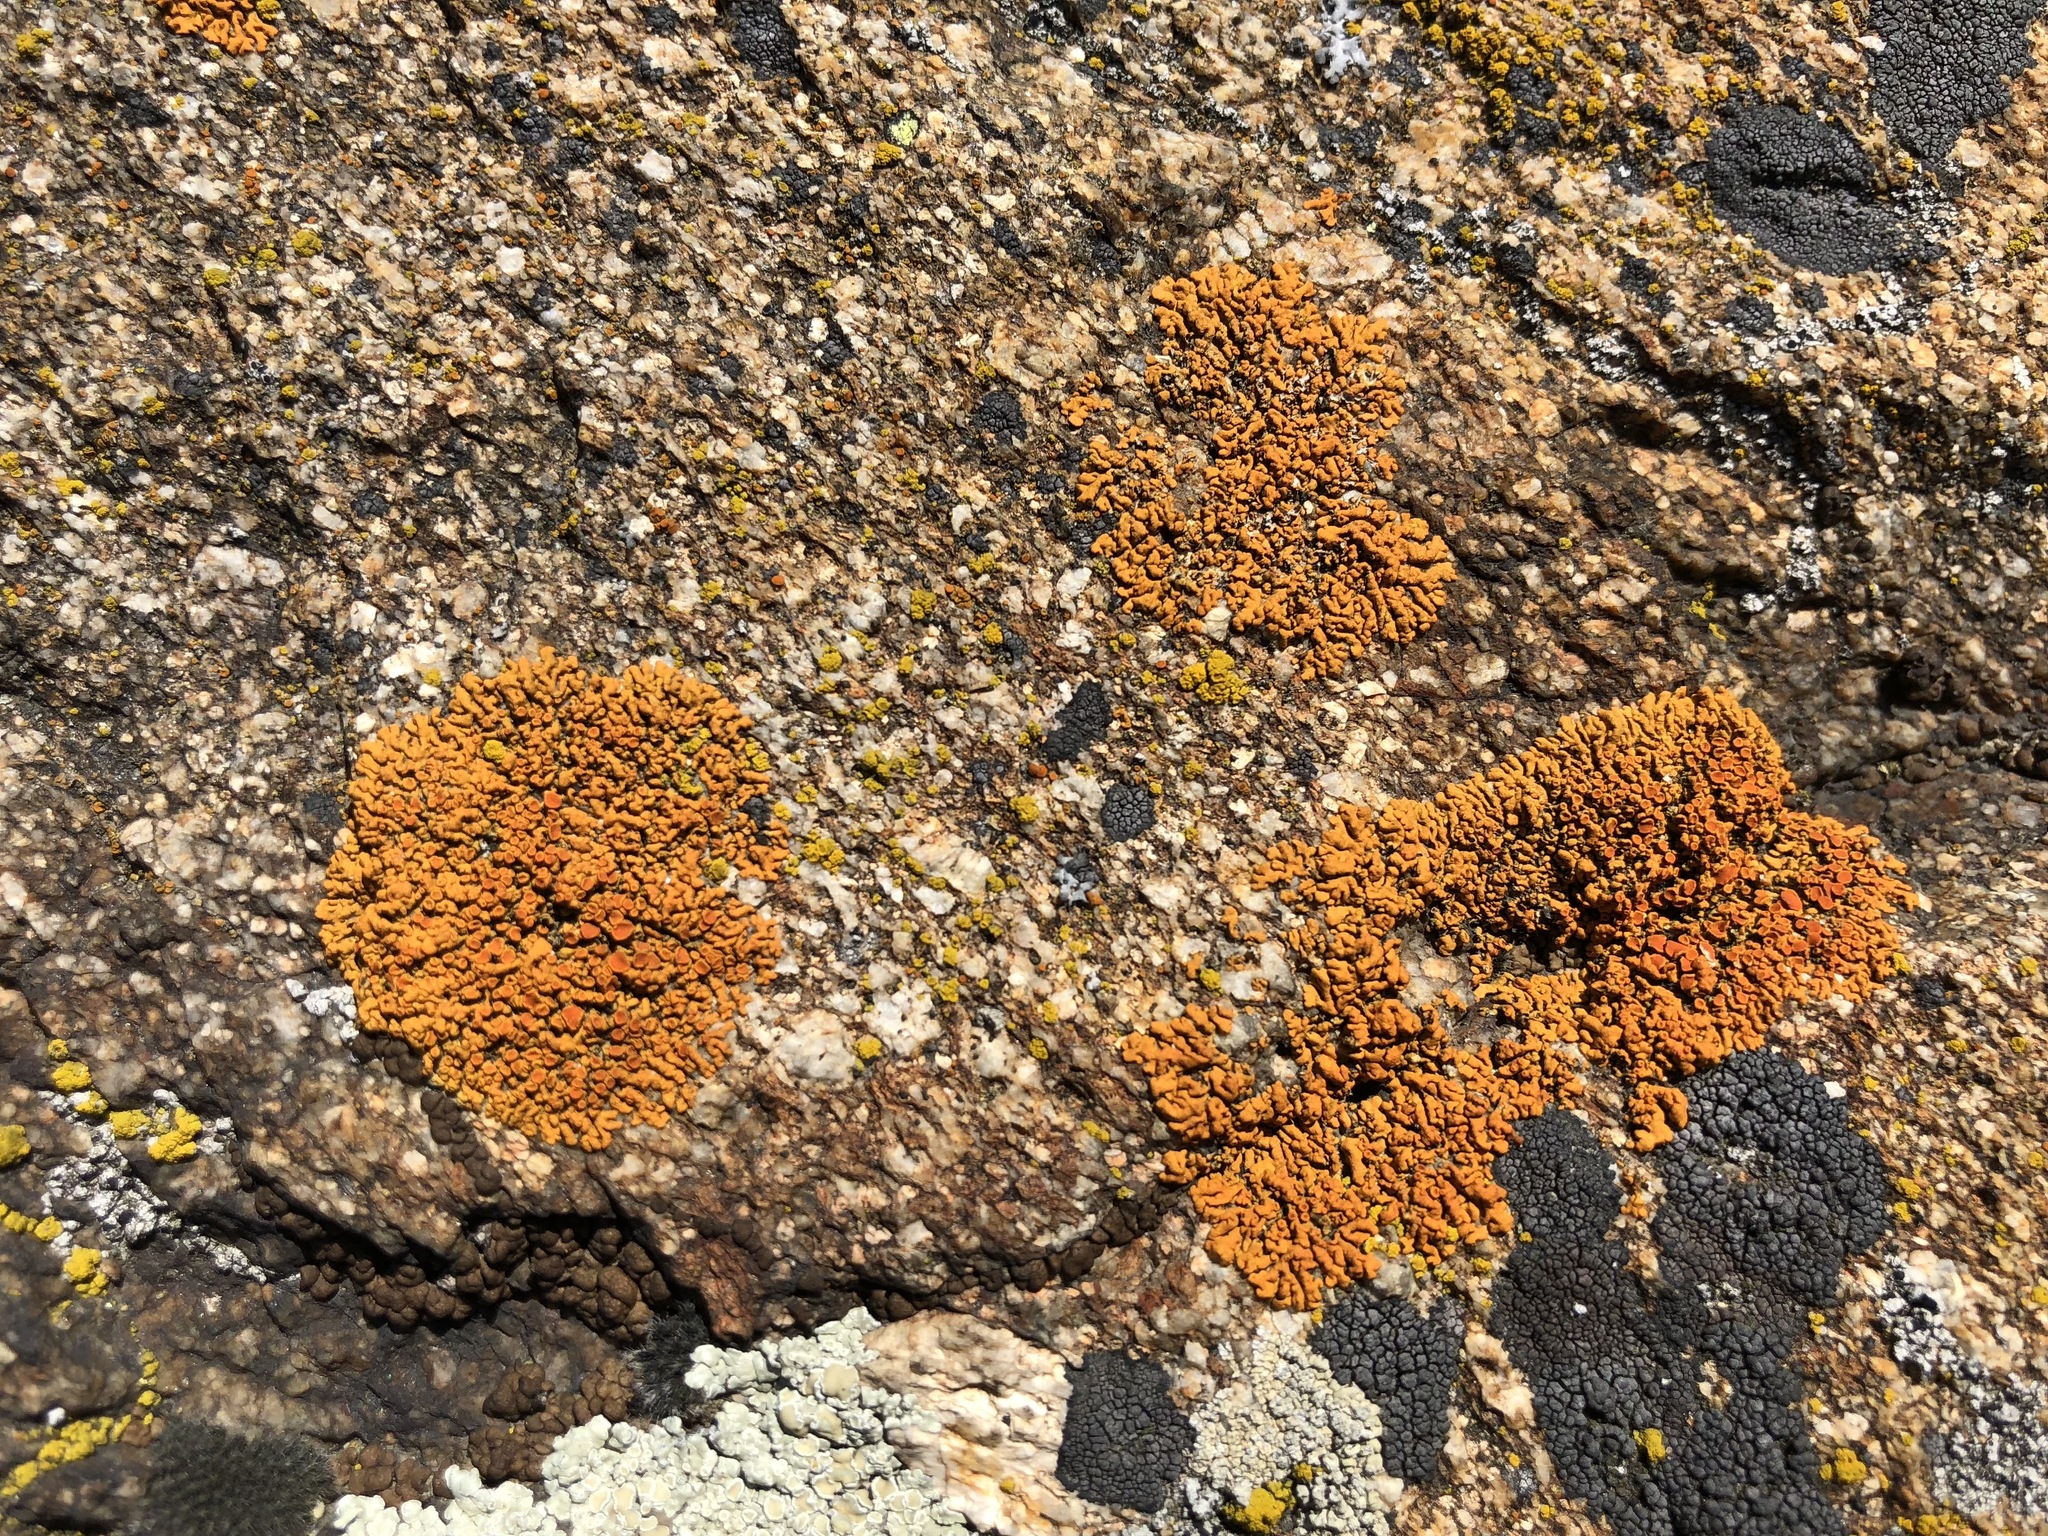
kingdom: Fungi
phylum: Ascomycota
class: Lecanoromycetes
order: Teloschistales
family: Teloschistaceae
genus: Xanthoria
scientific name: Xanthoria elegans
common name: Elegant sunburst lichen
